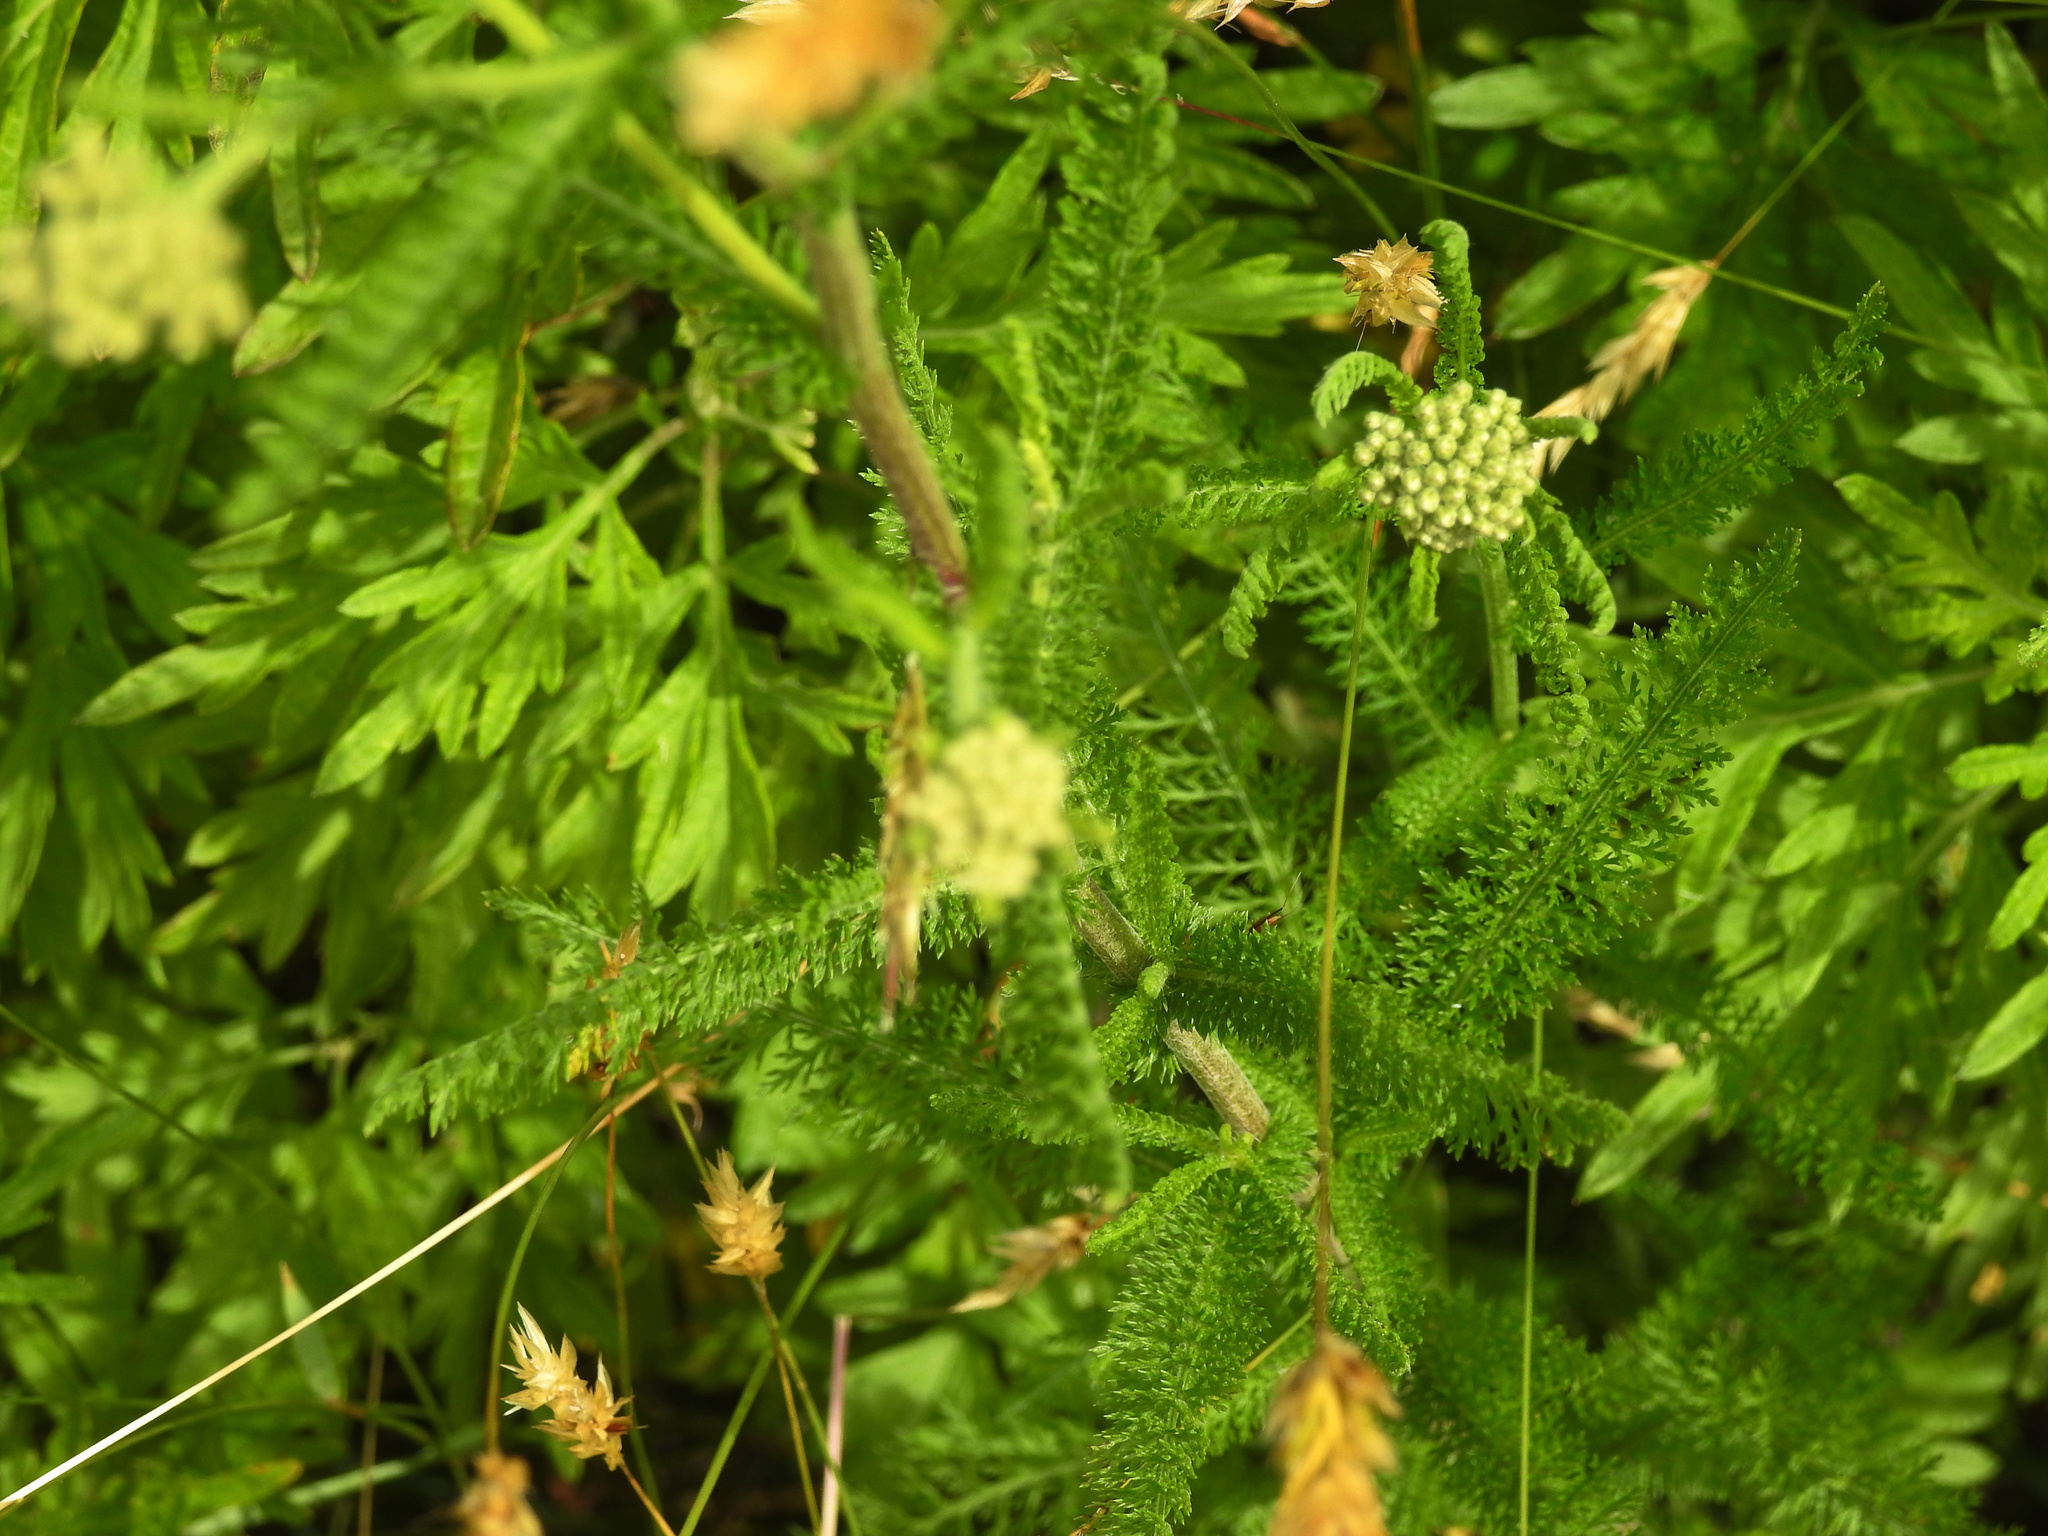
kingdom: Plantae
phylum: Tracheophyta
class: Magnoliopsida
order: Asterales
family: Asteraceae
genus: Achillea
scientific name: Achillea millefolium
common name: Yarrow
